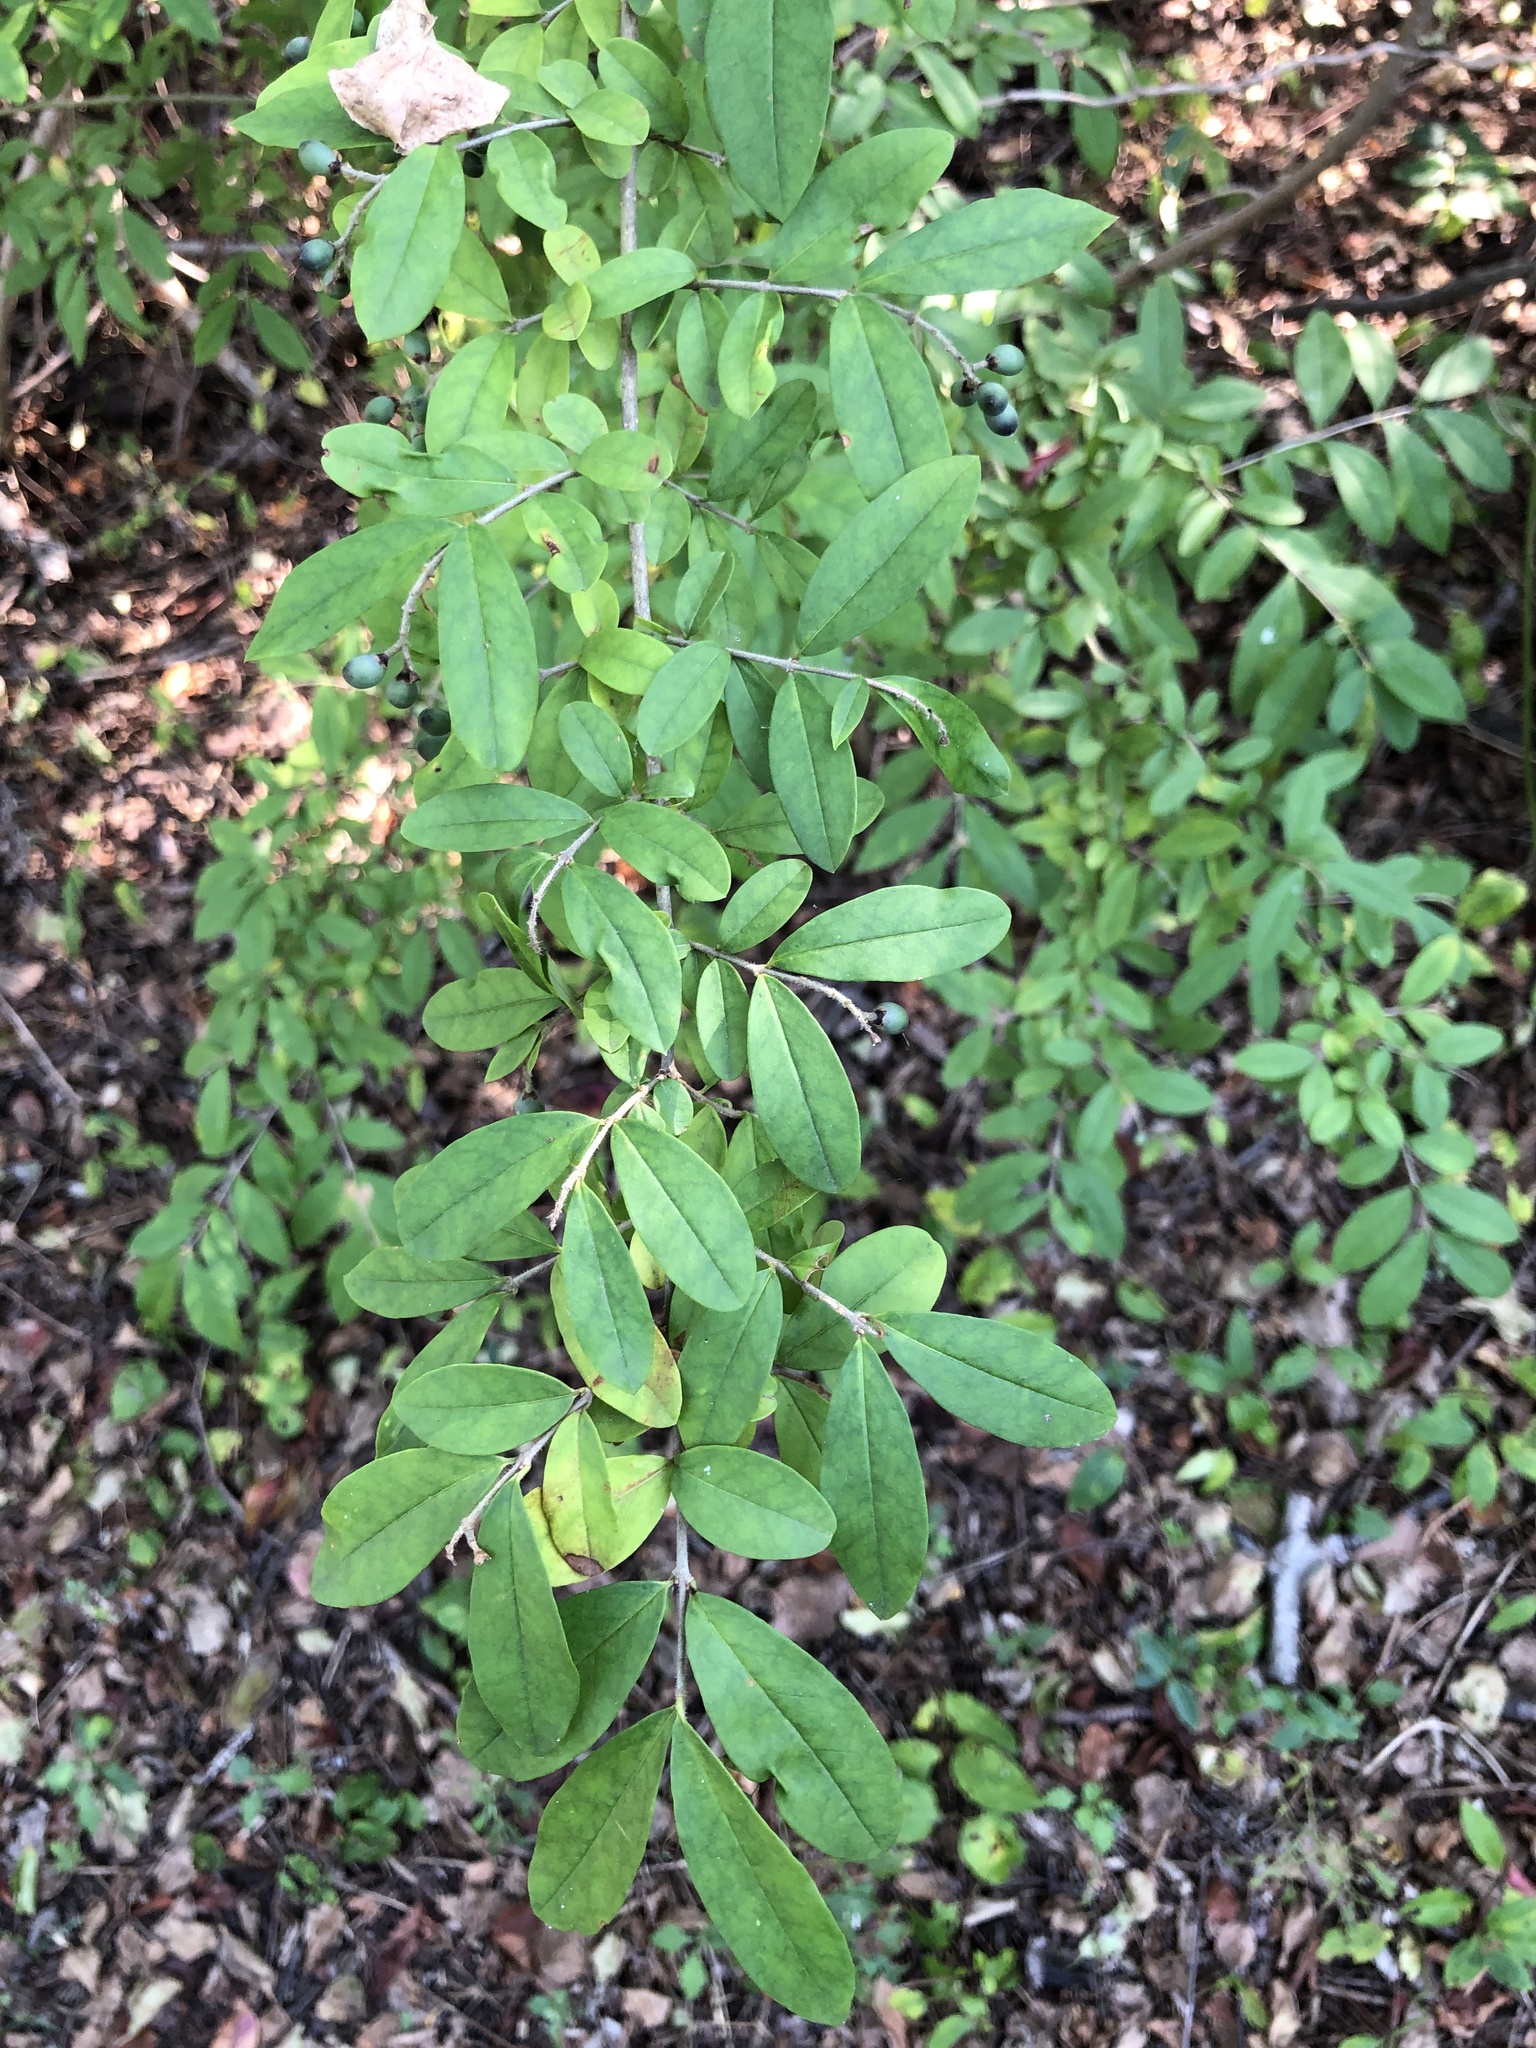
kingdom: Plantae
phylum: Tracheophyta
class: Magnoliopsida
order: Lamiales
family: Oleaceae
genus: Ligustrum
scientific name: Ligustrum obtusifolium
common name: Border privet
